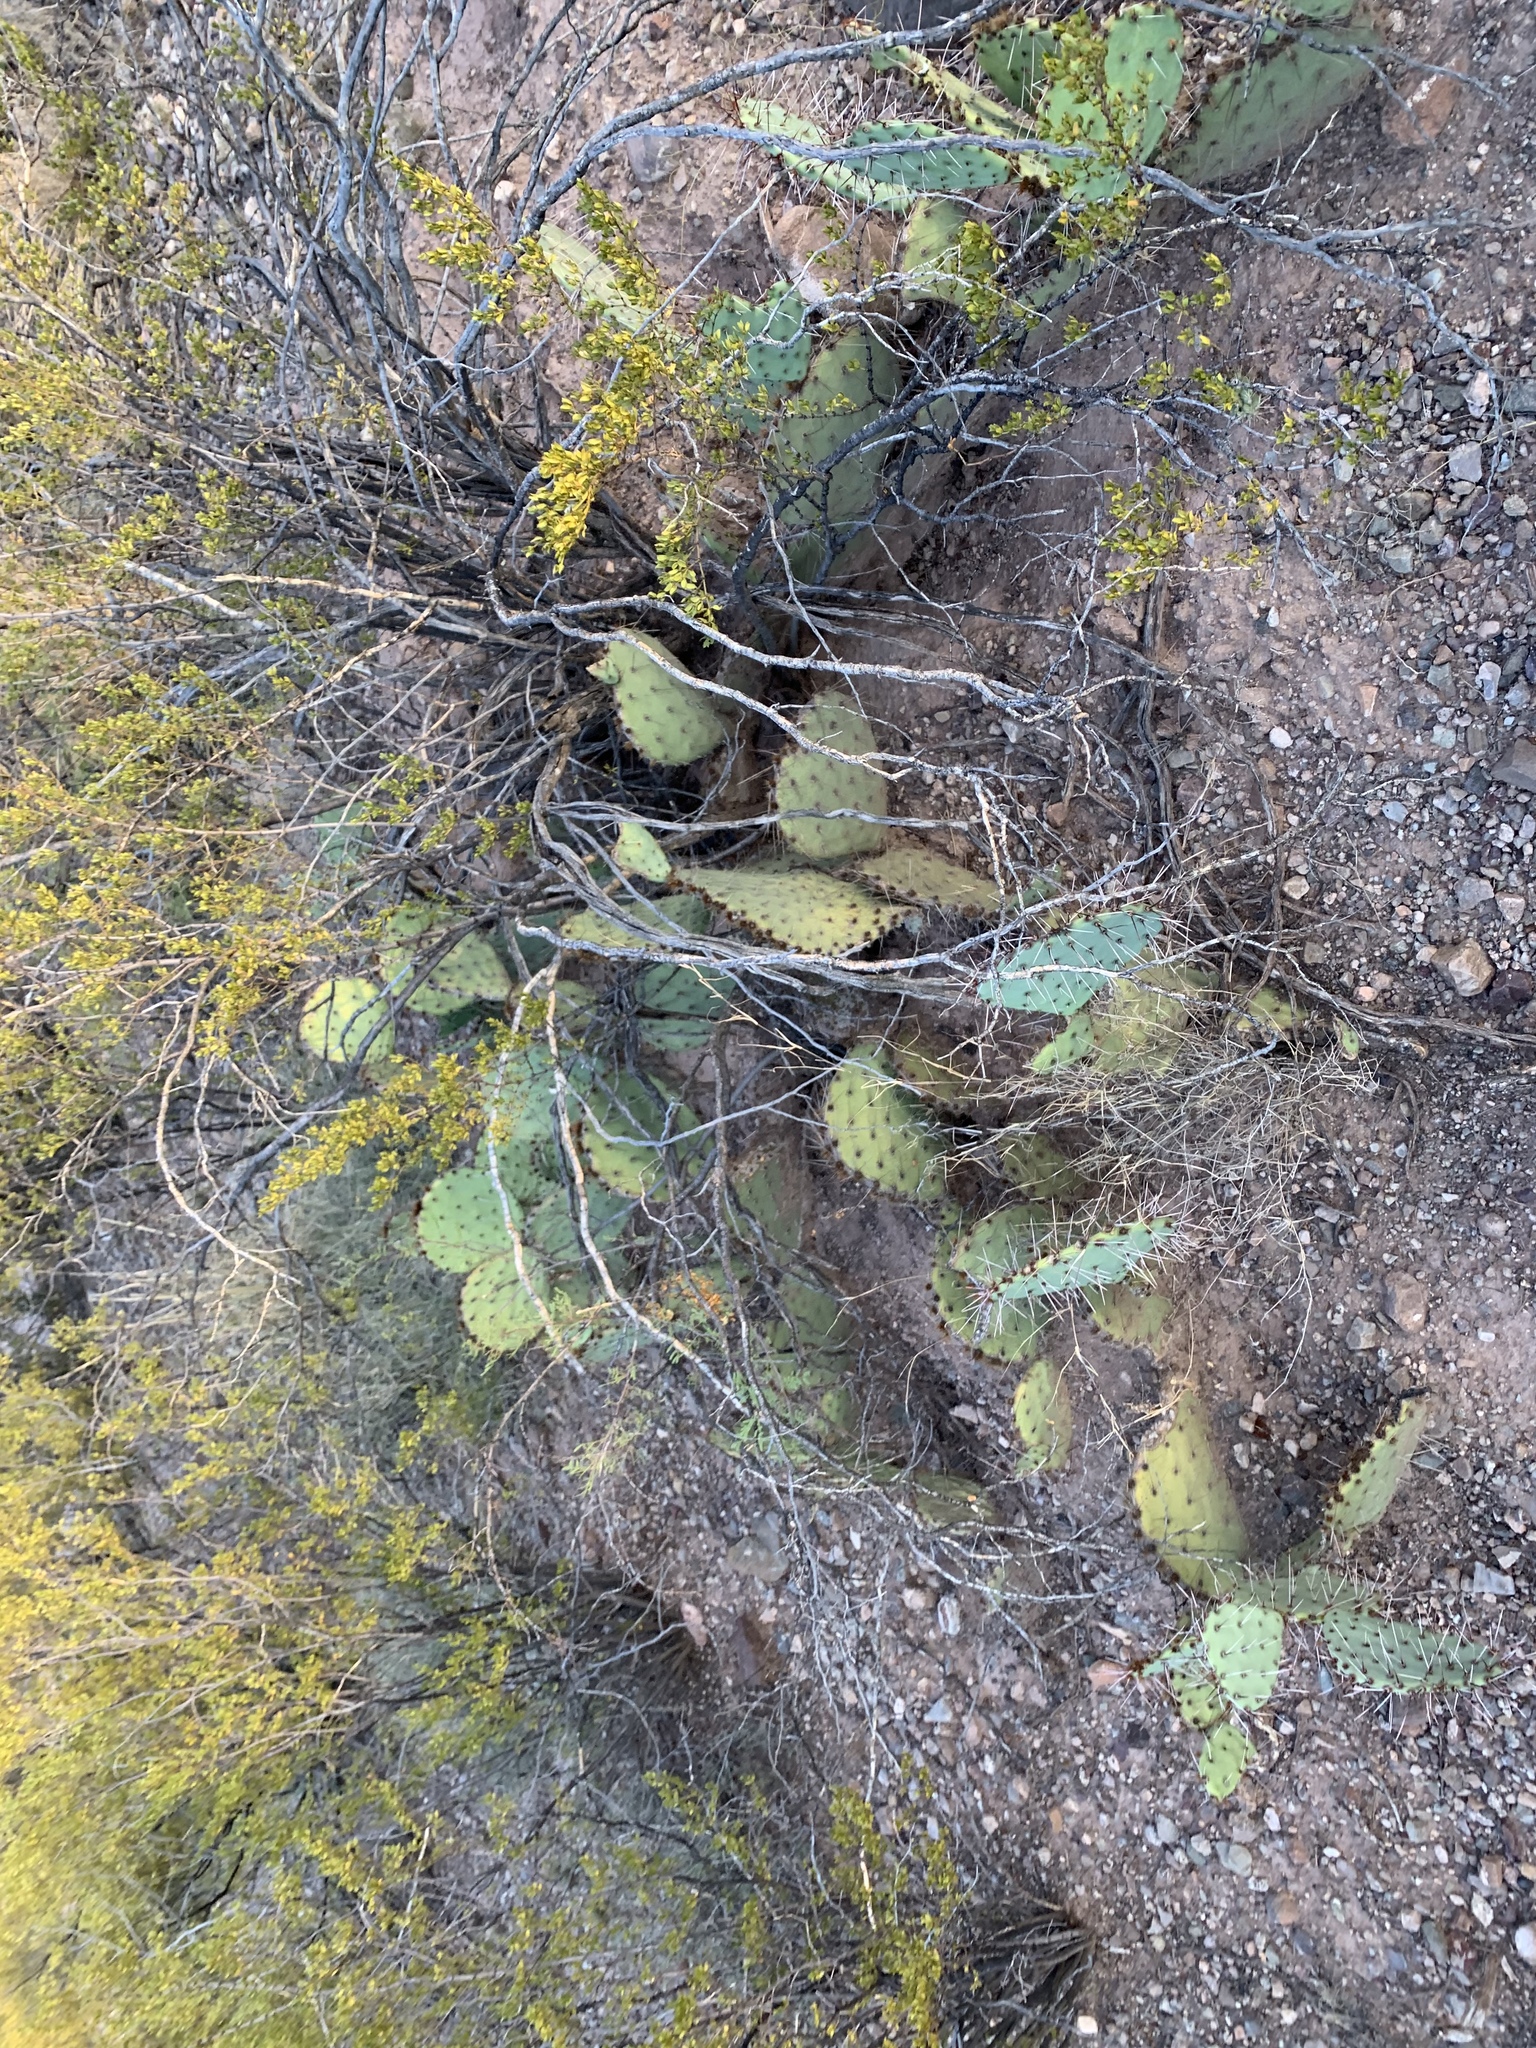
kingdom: Plantae
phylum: Tracheophyta
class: Magnoliopsida
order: Caryophyllales
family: Cactaceae
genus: Opuntia
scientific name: Opuntia engelmannii
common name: Cactus-apple
